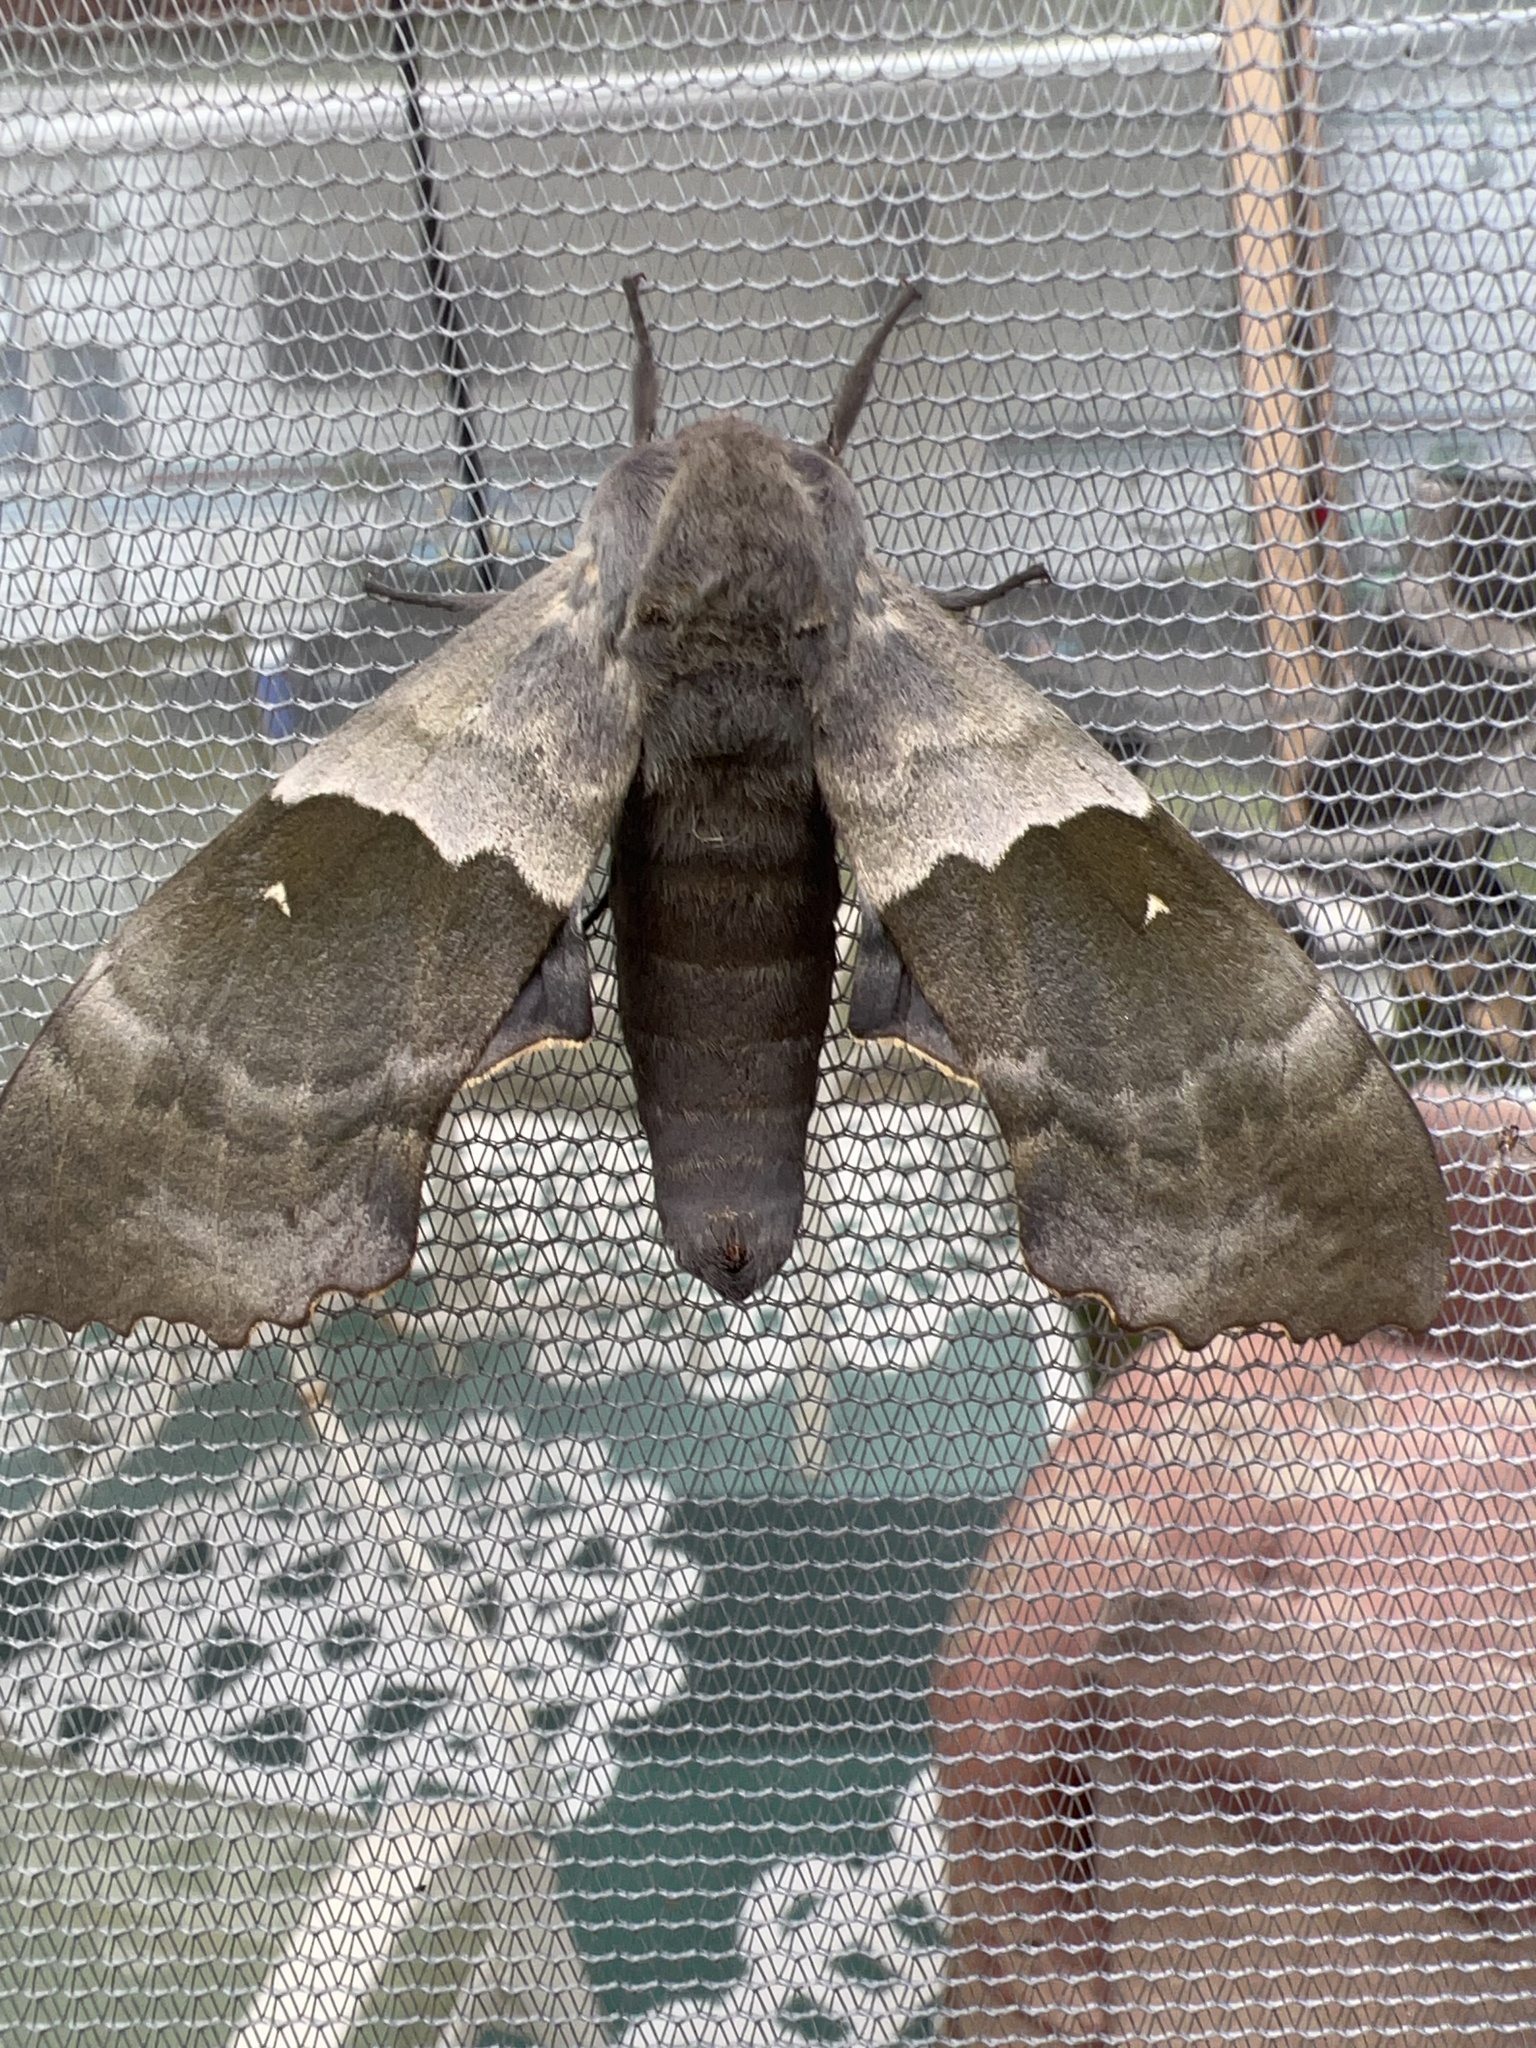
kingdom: Animalia
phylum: Arthropoda
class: Insecta
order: Lepidoptera
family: Sphingidae
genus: Pachysphinx
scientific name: Pachysphinx modesta
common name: Big poplar sphinx
